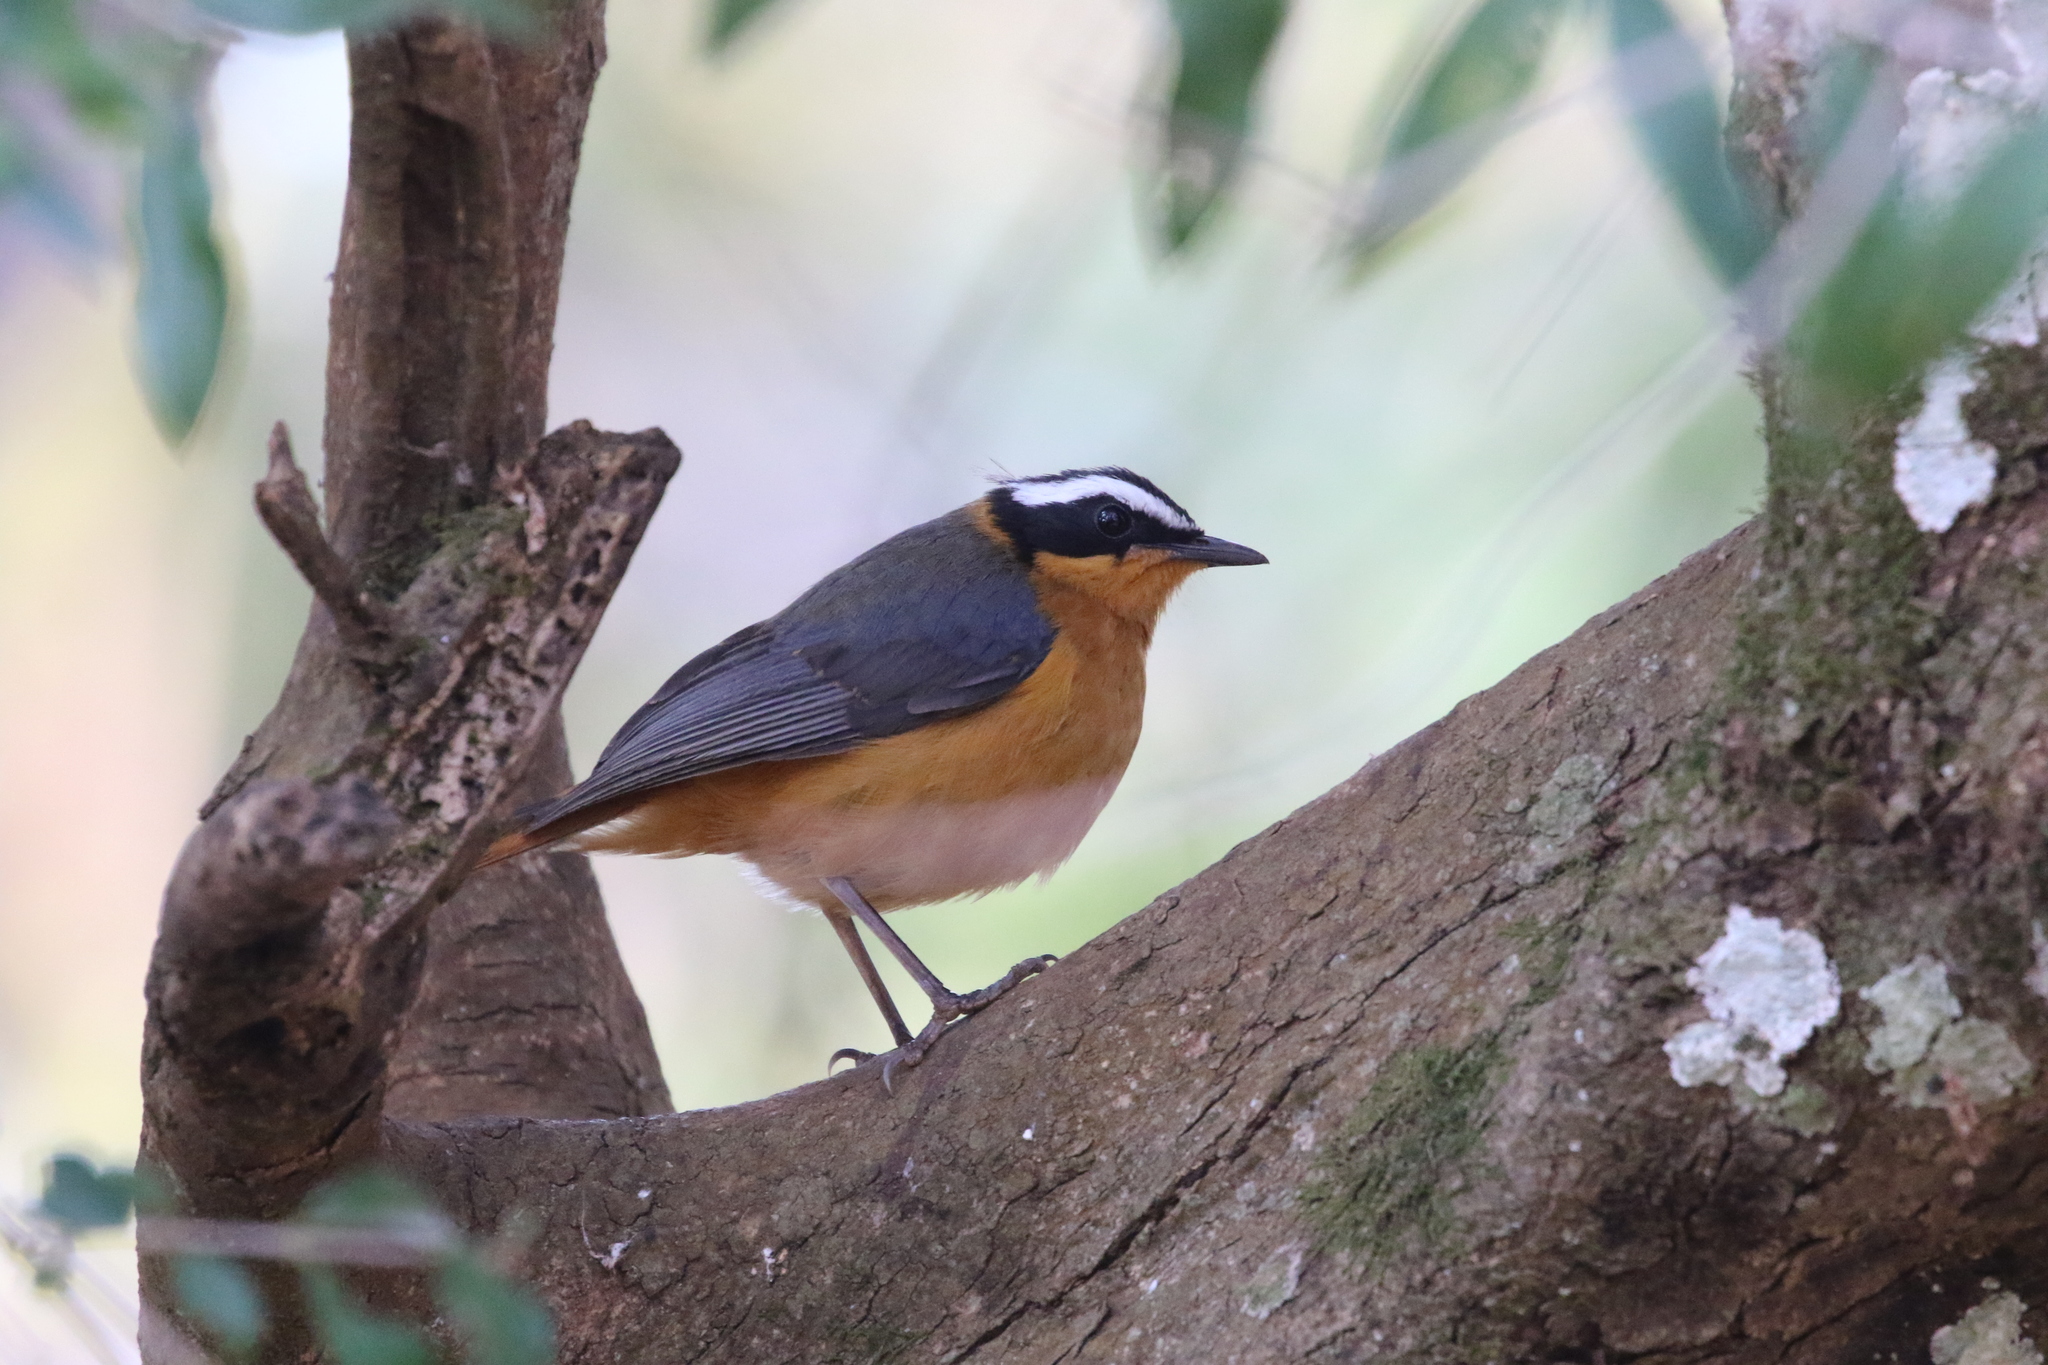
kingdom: Animalia
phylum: Chordata
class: Aves
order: Passeriformes
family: Muscicapidae
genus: Cossypha
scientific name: Cossypha heuglini
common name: White-browed robin-chat
